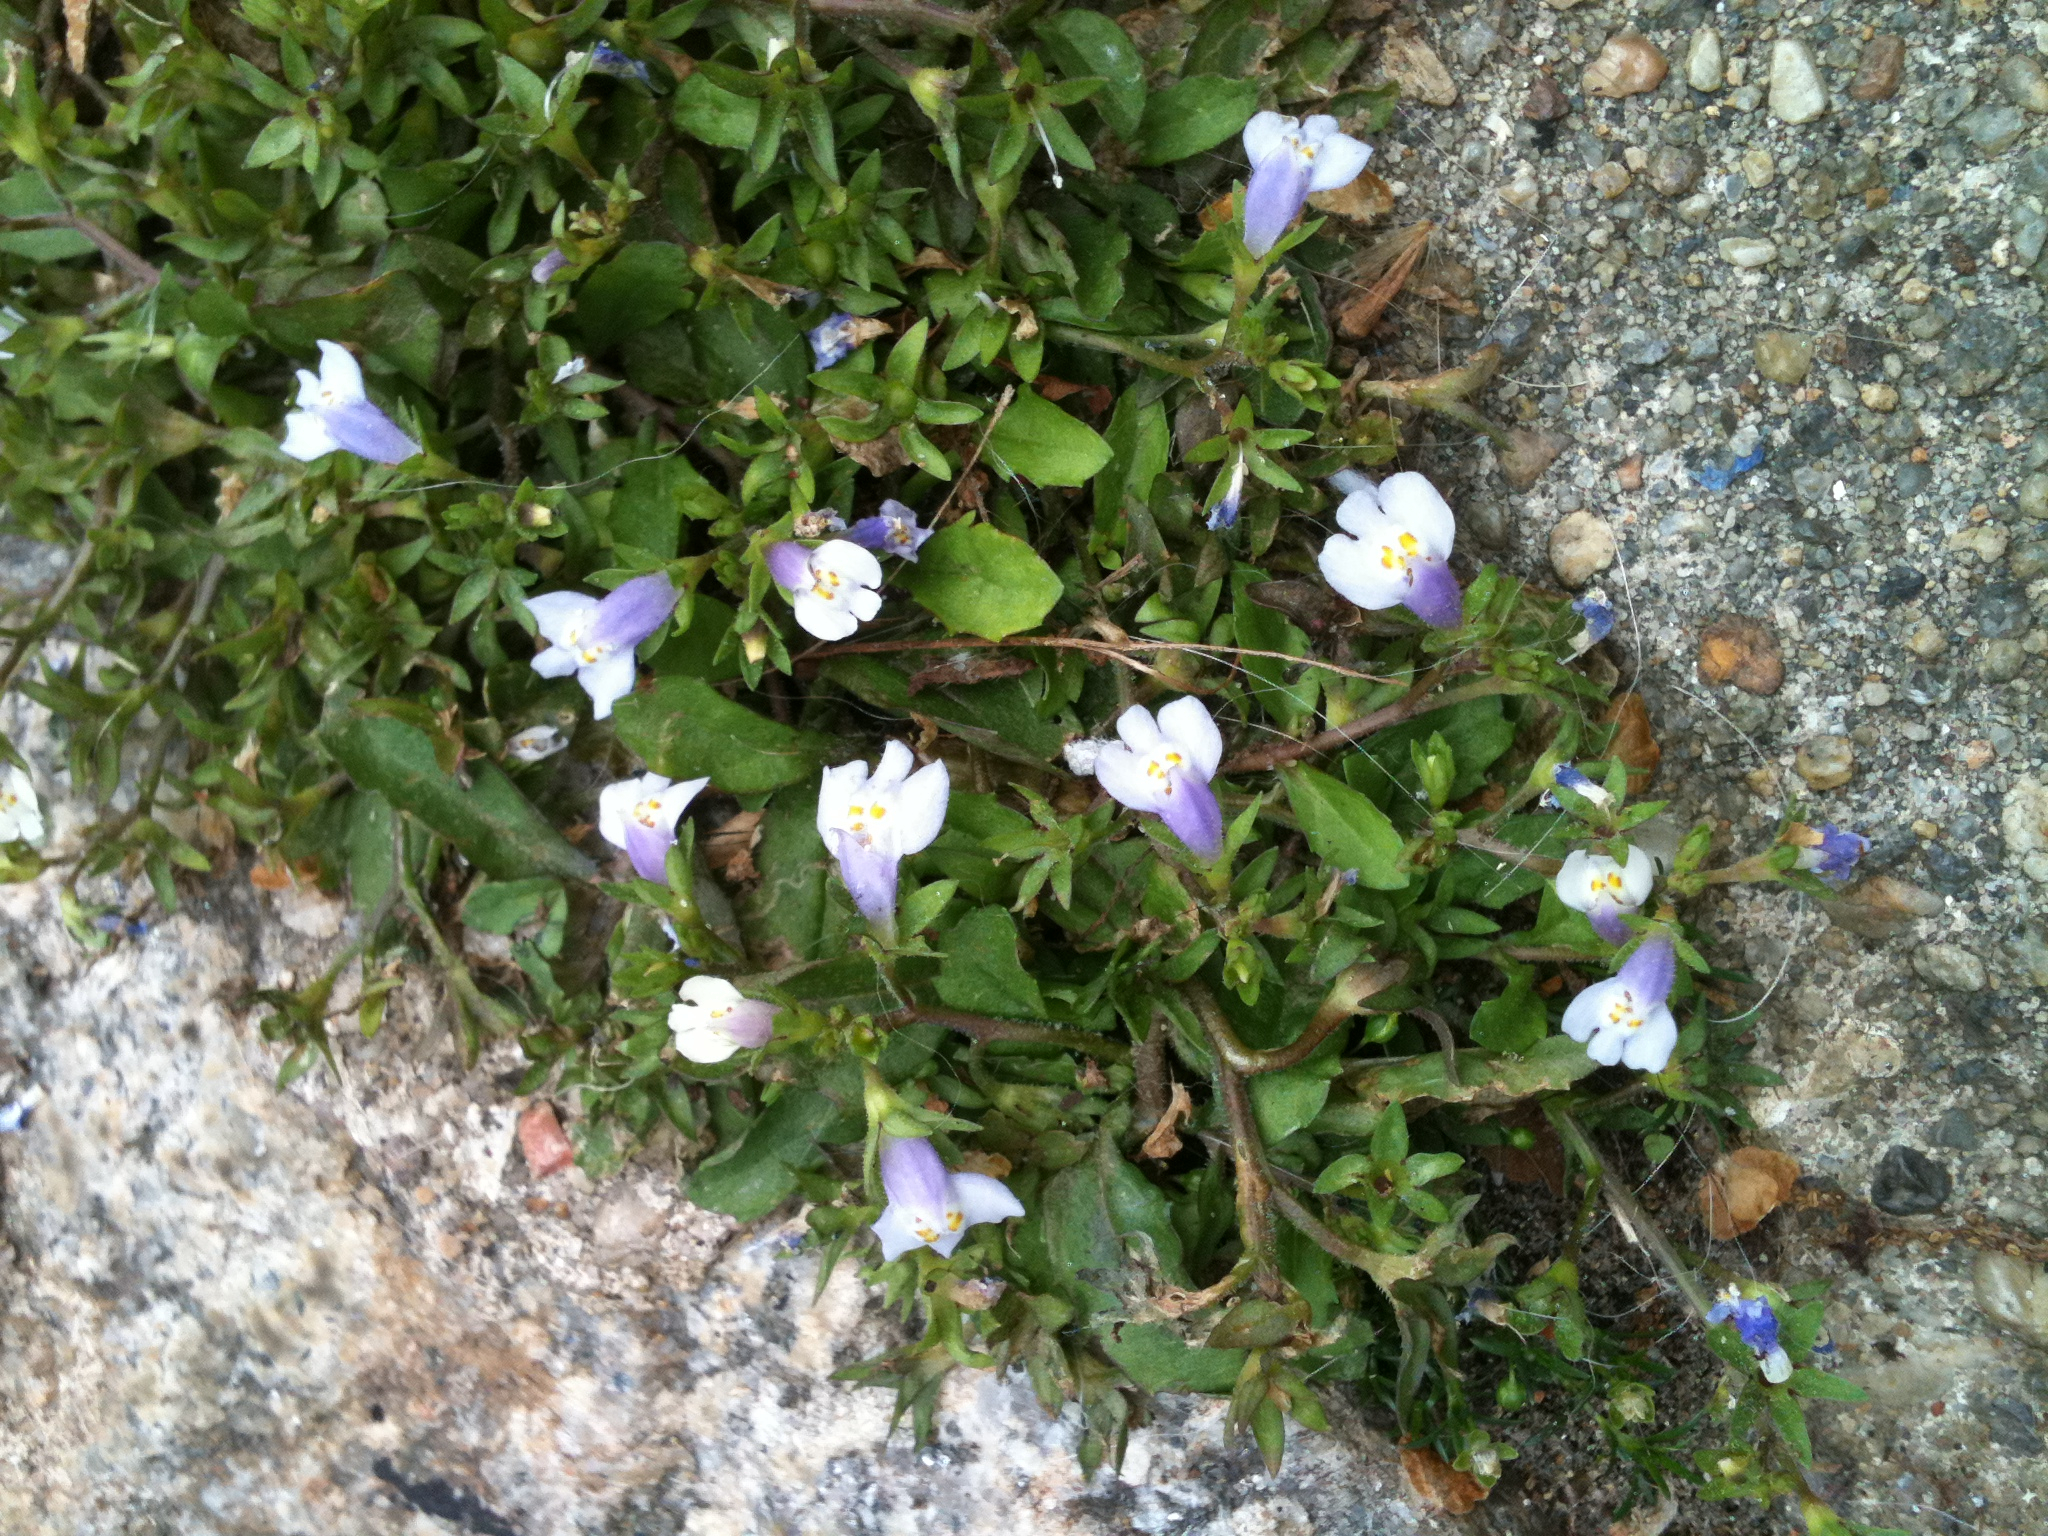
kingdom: Plantae
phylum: Tracheophyta
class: Magnoliopsida
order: Lamiales
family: Mazaceae
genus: Mazus
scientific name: Mazus pumilus
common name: Japanese mazus
